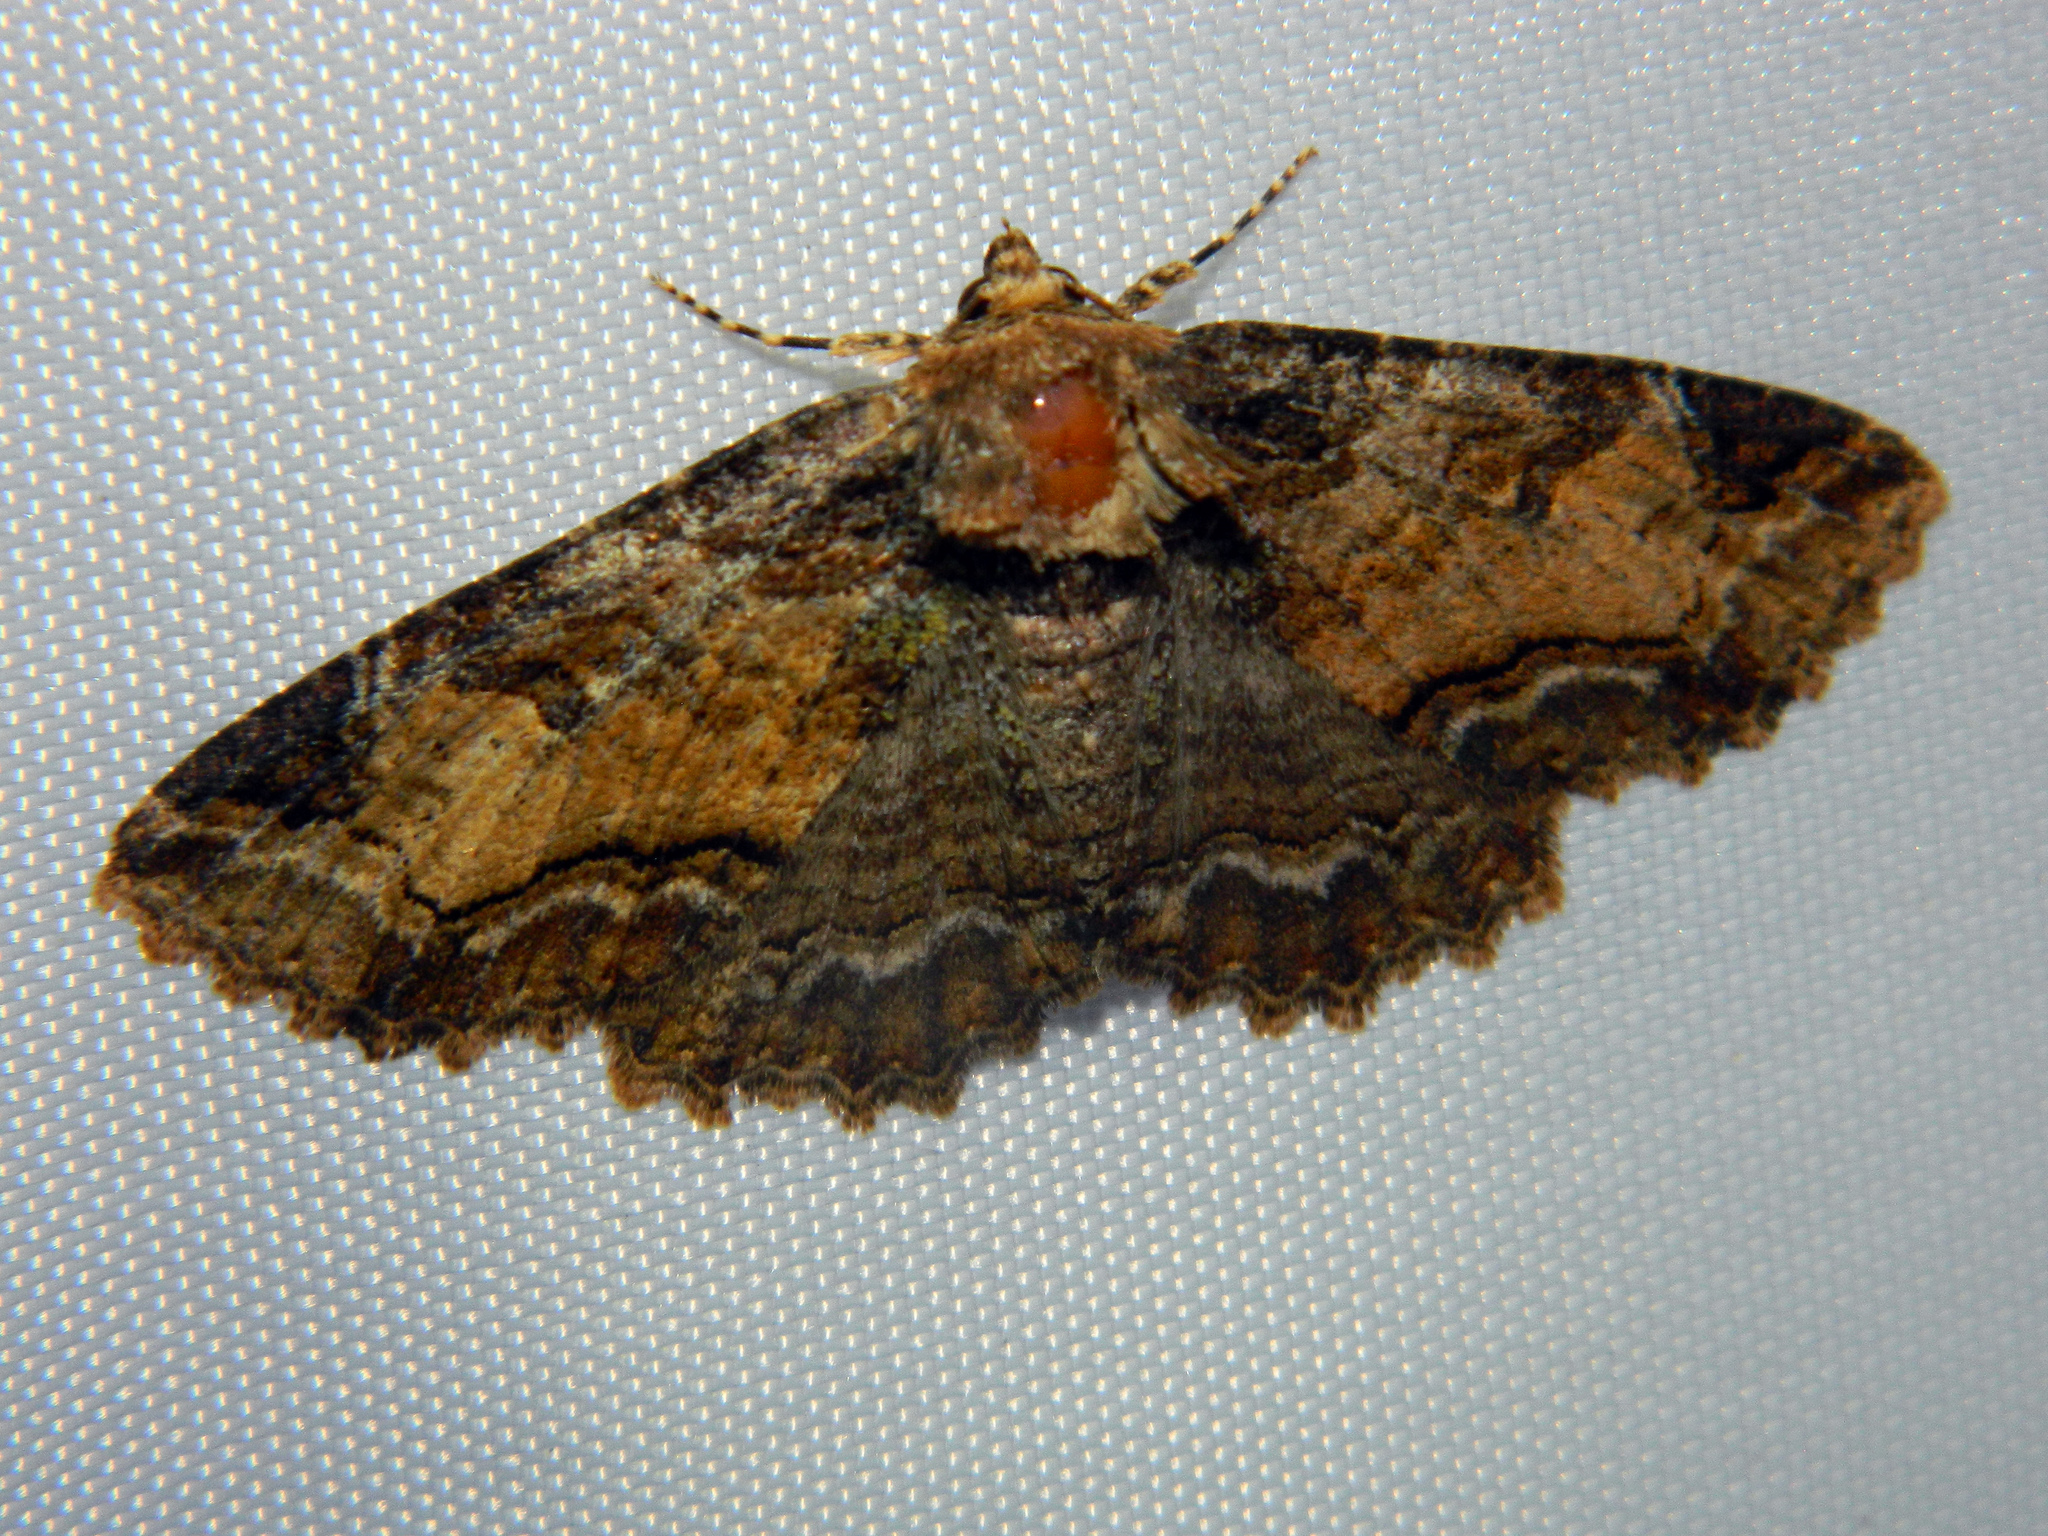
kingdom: Animalia
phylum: Arthropoda
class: Insecta
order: Lepidoptera
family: Erebidae
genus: Zale
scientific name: Zale minerea
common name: Colorful zale moth
